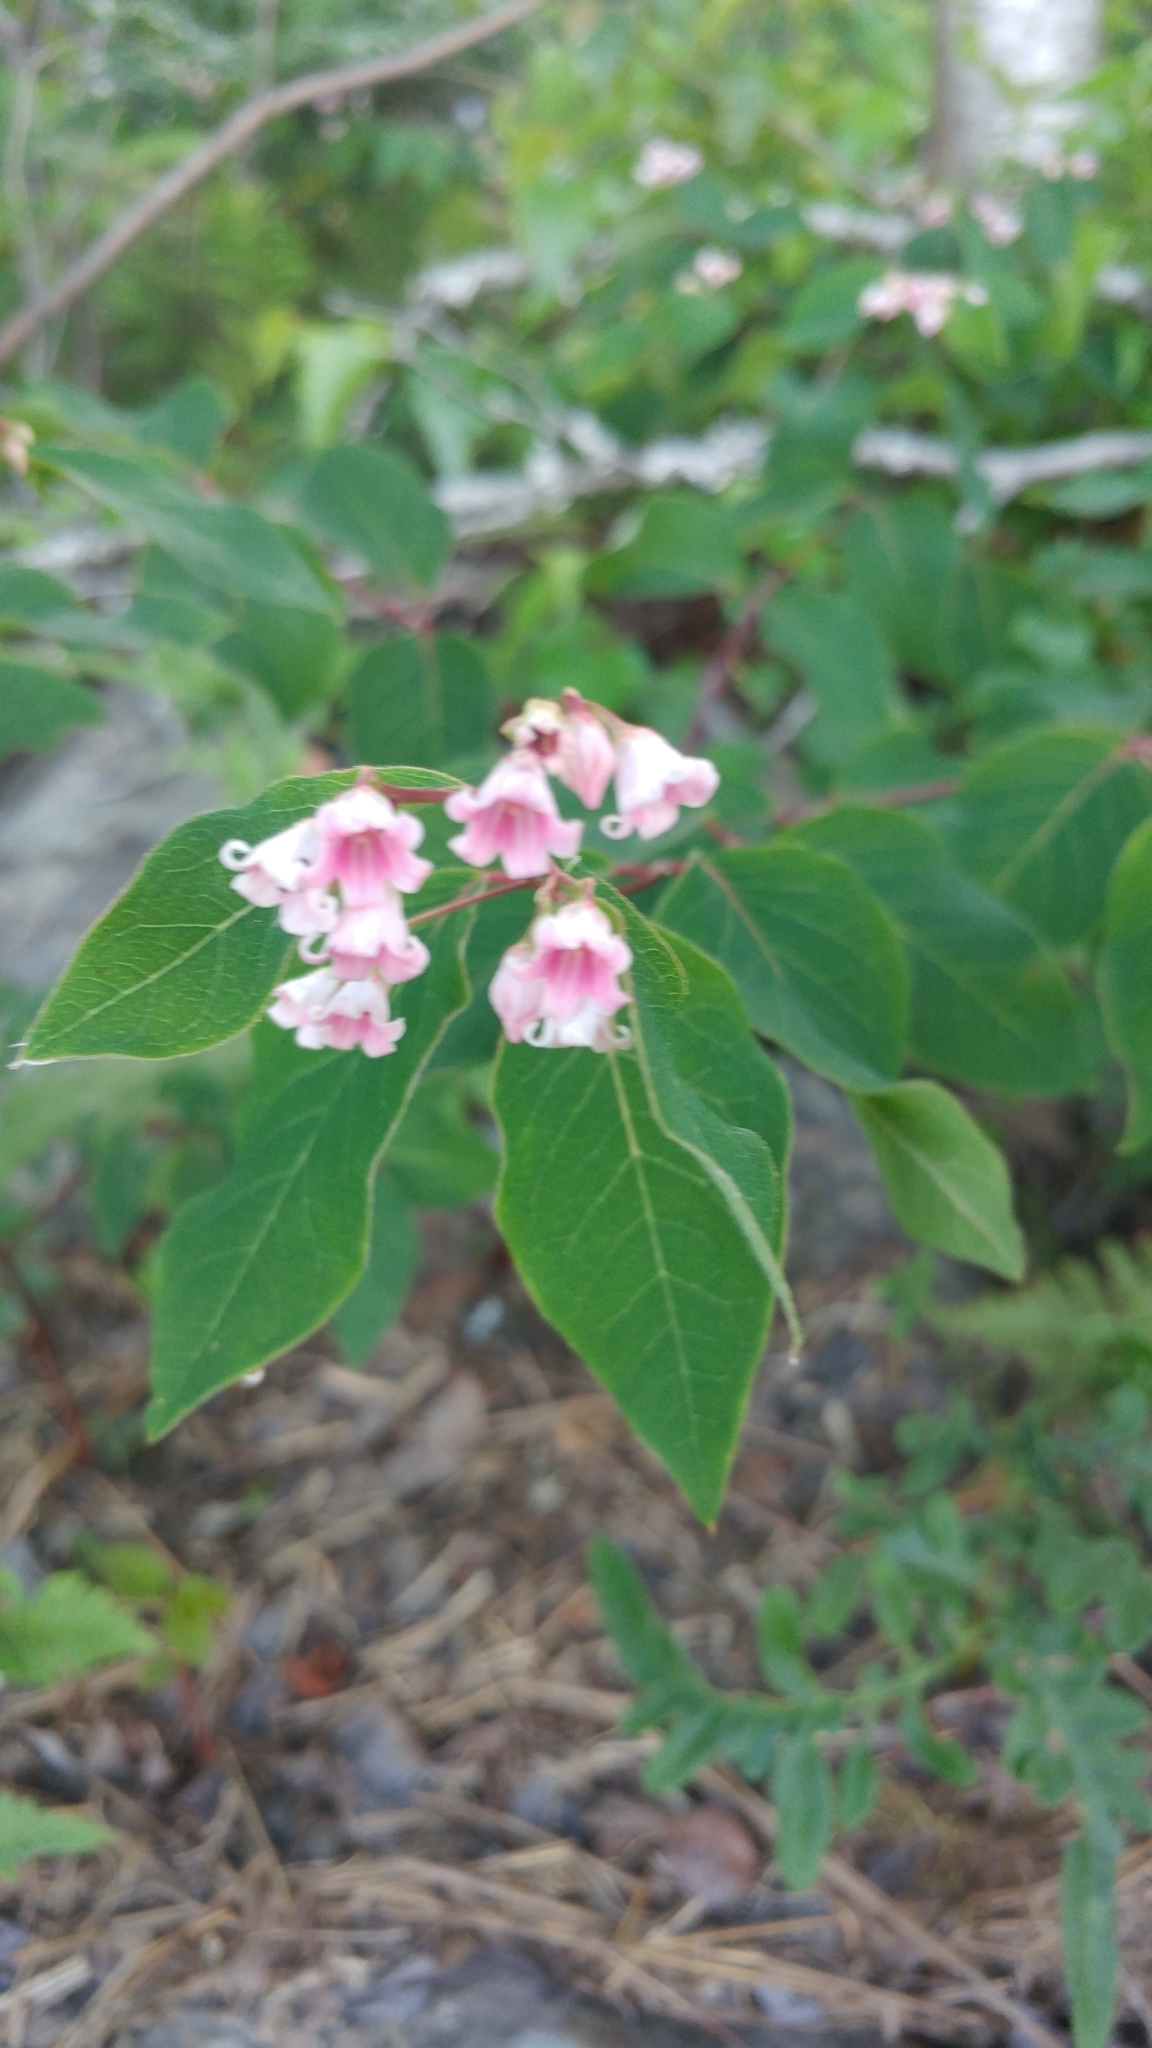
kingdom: Plantae
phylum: Tracheophyta
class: Magnoliopsida
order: Gentianales
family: Apocynaceae
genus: Apocynum
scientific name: Apocynum androsaemifolium
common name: Spreading dogbane
